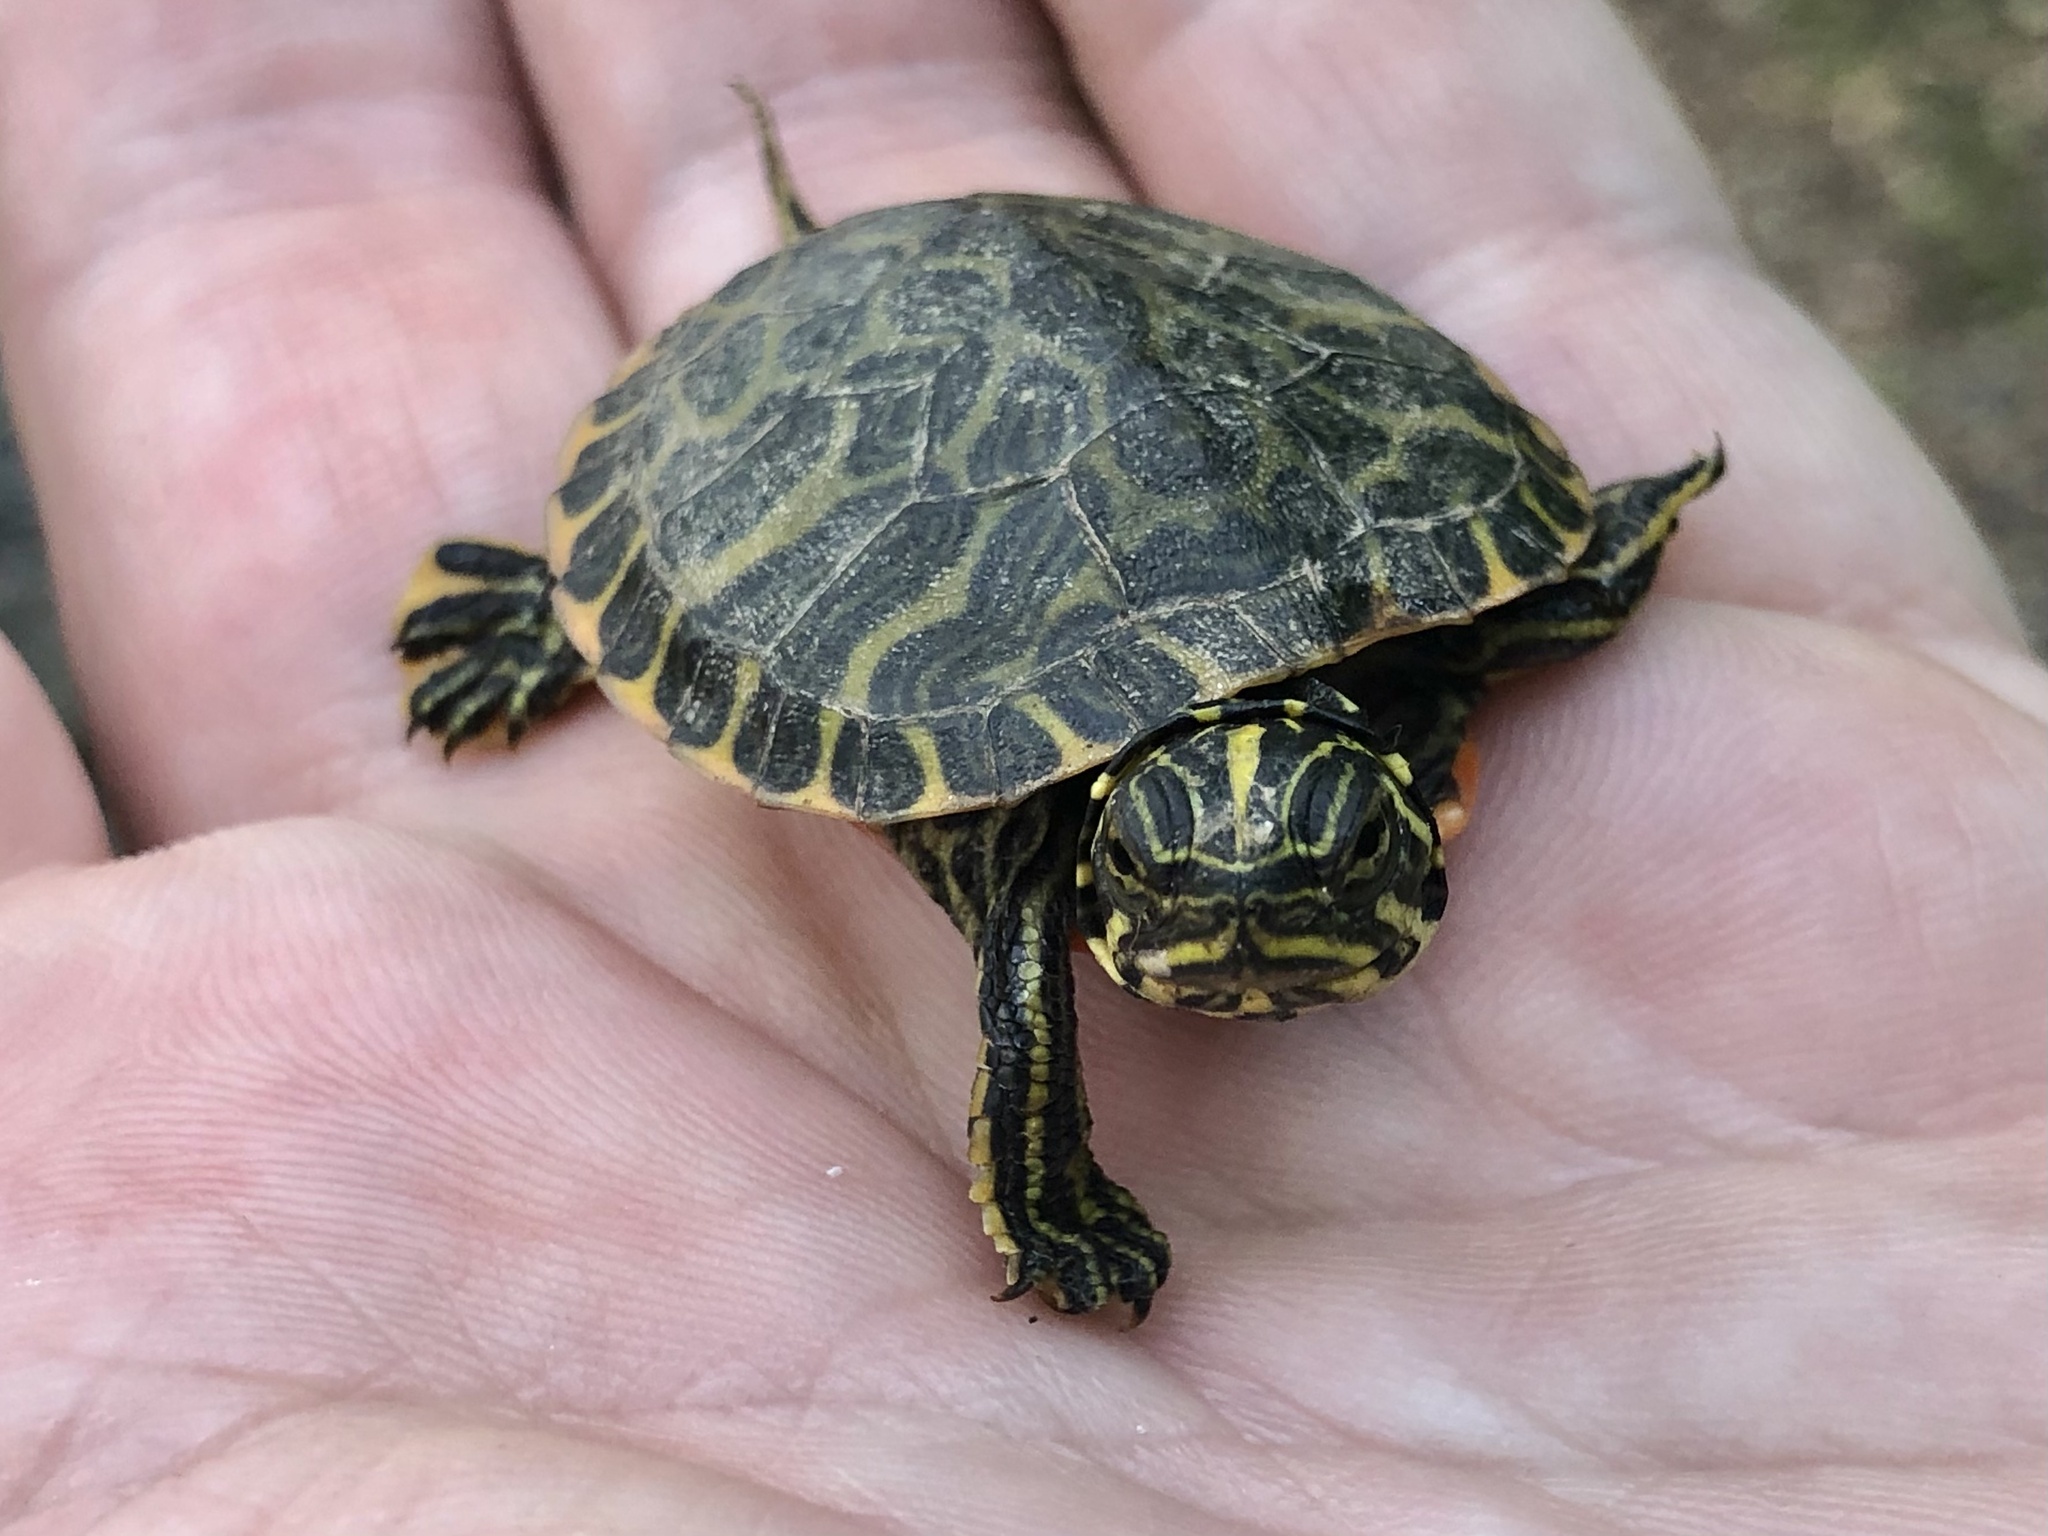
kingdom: Animalia
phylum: Chordata
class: Testudines
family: Emydidae
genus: Pseudemys
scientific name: Pseudemys rubriventris
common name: American red-bellied turtle
